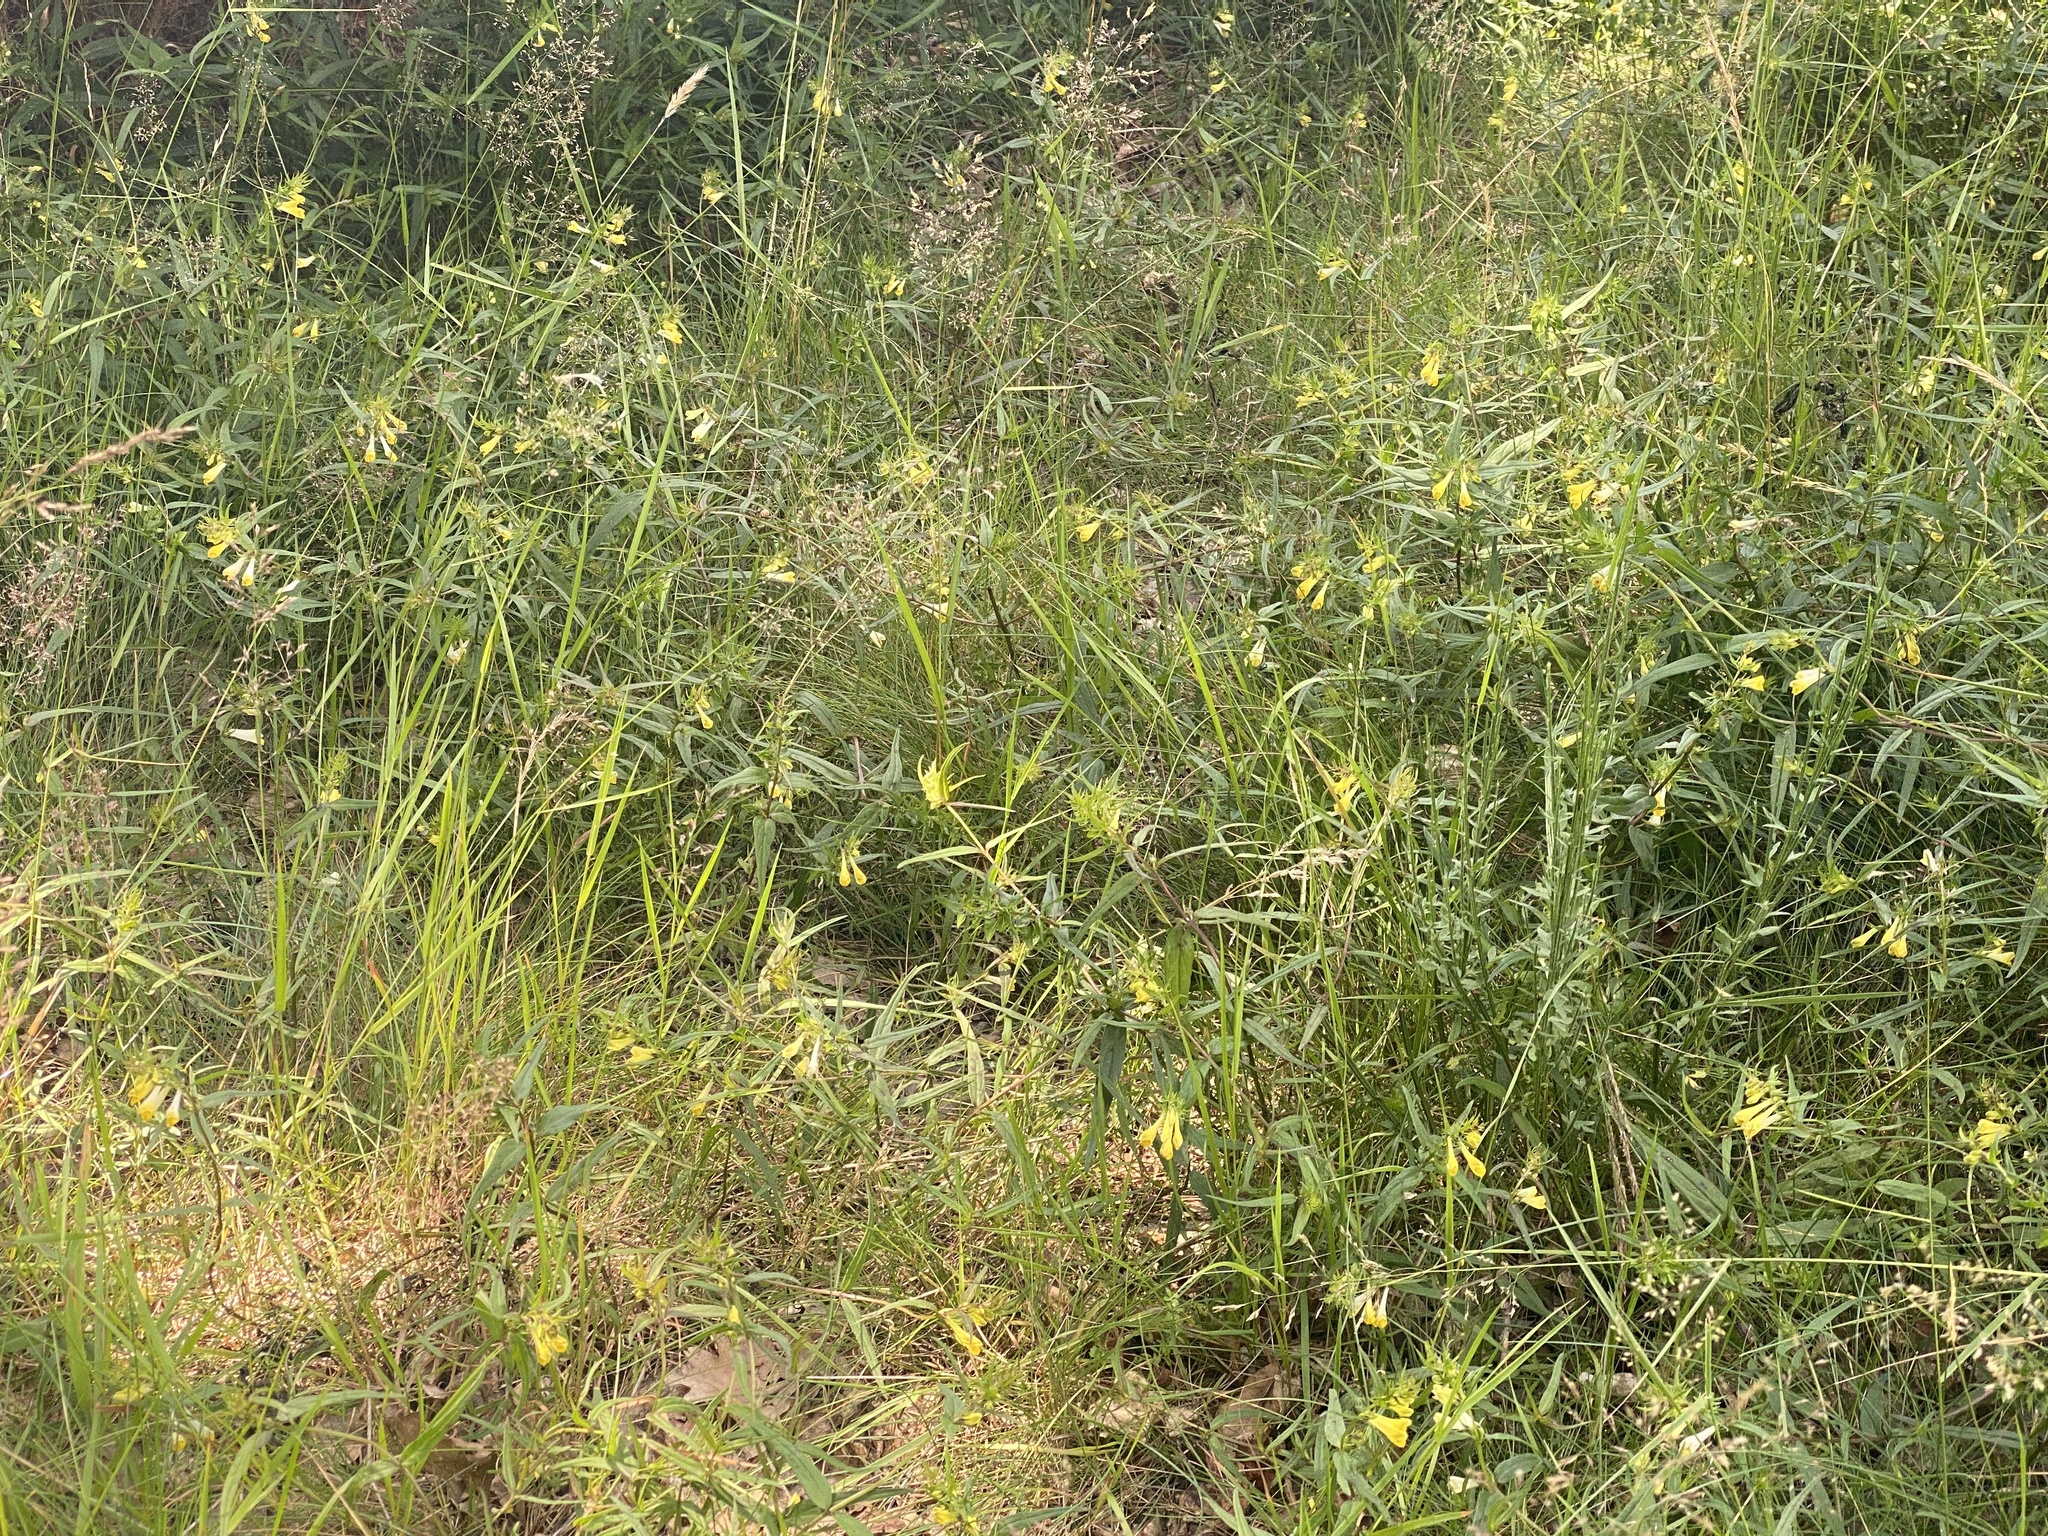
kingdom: Plantae
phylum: Tracheophyta
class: Magnoliopsida
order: Lamiales
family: Orobanchaceae
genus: Melampyrum
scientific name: Melampyrum pratense
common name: Common cow-wheat
